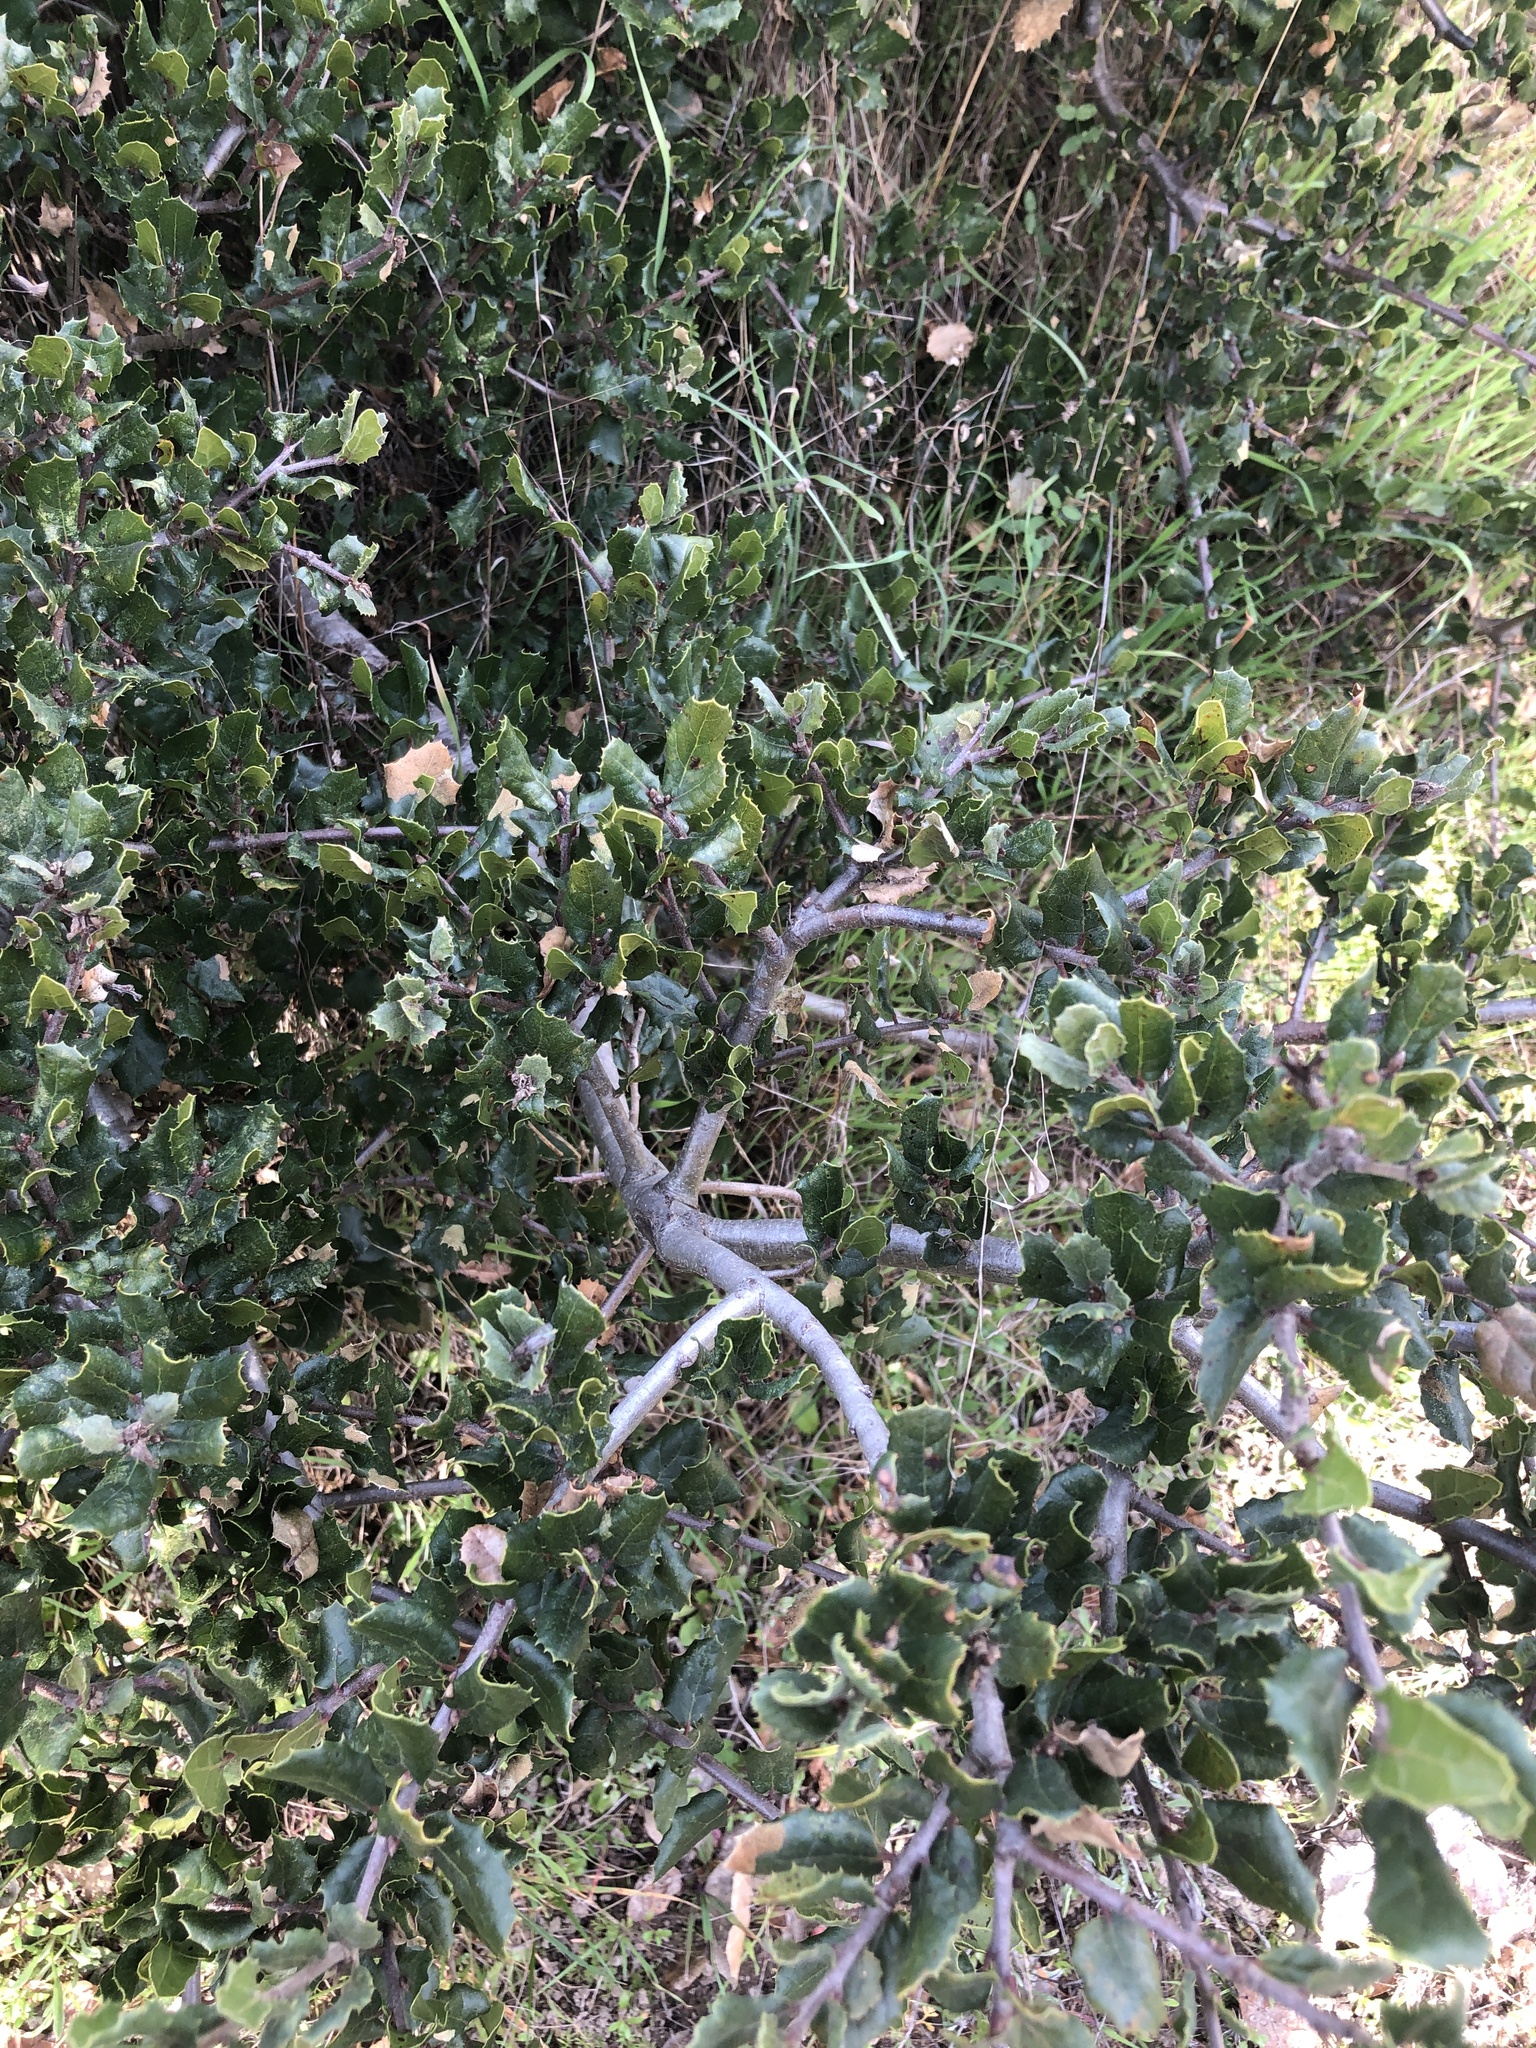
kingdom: Plantae
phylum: Tracheophyta
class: Magnoliopsida
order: Fagales
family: Fagaceae
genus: Quercus
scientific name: Quercus agrifolia
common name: California live oak
